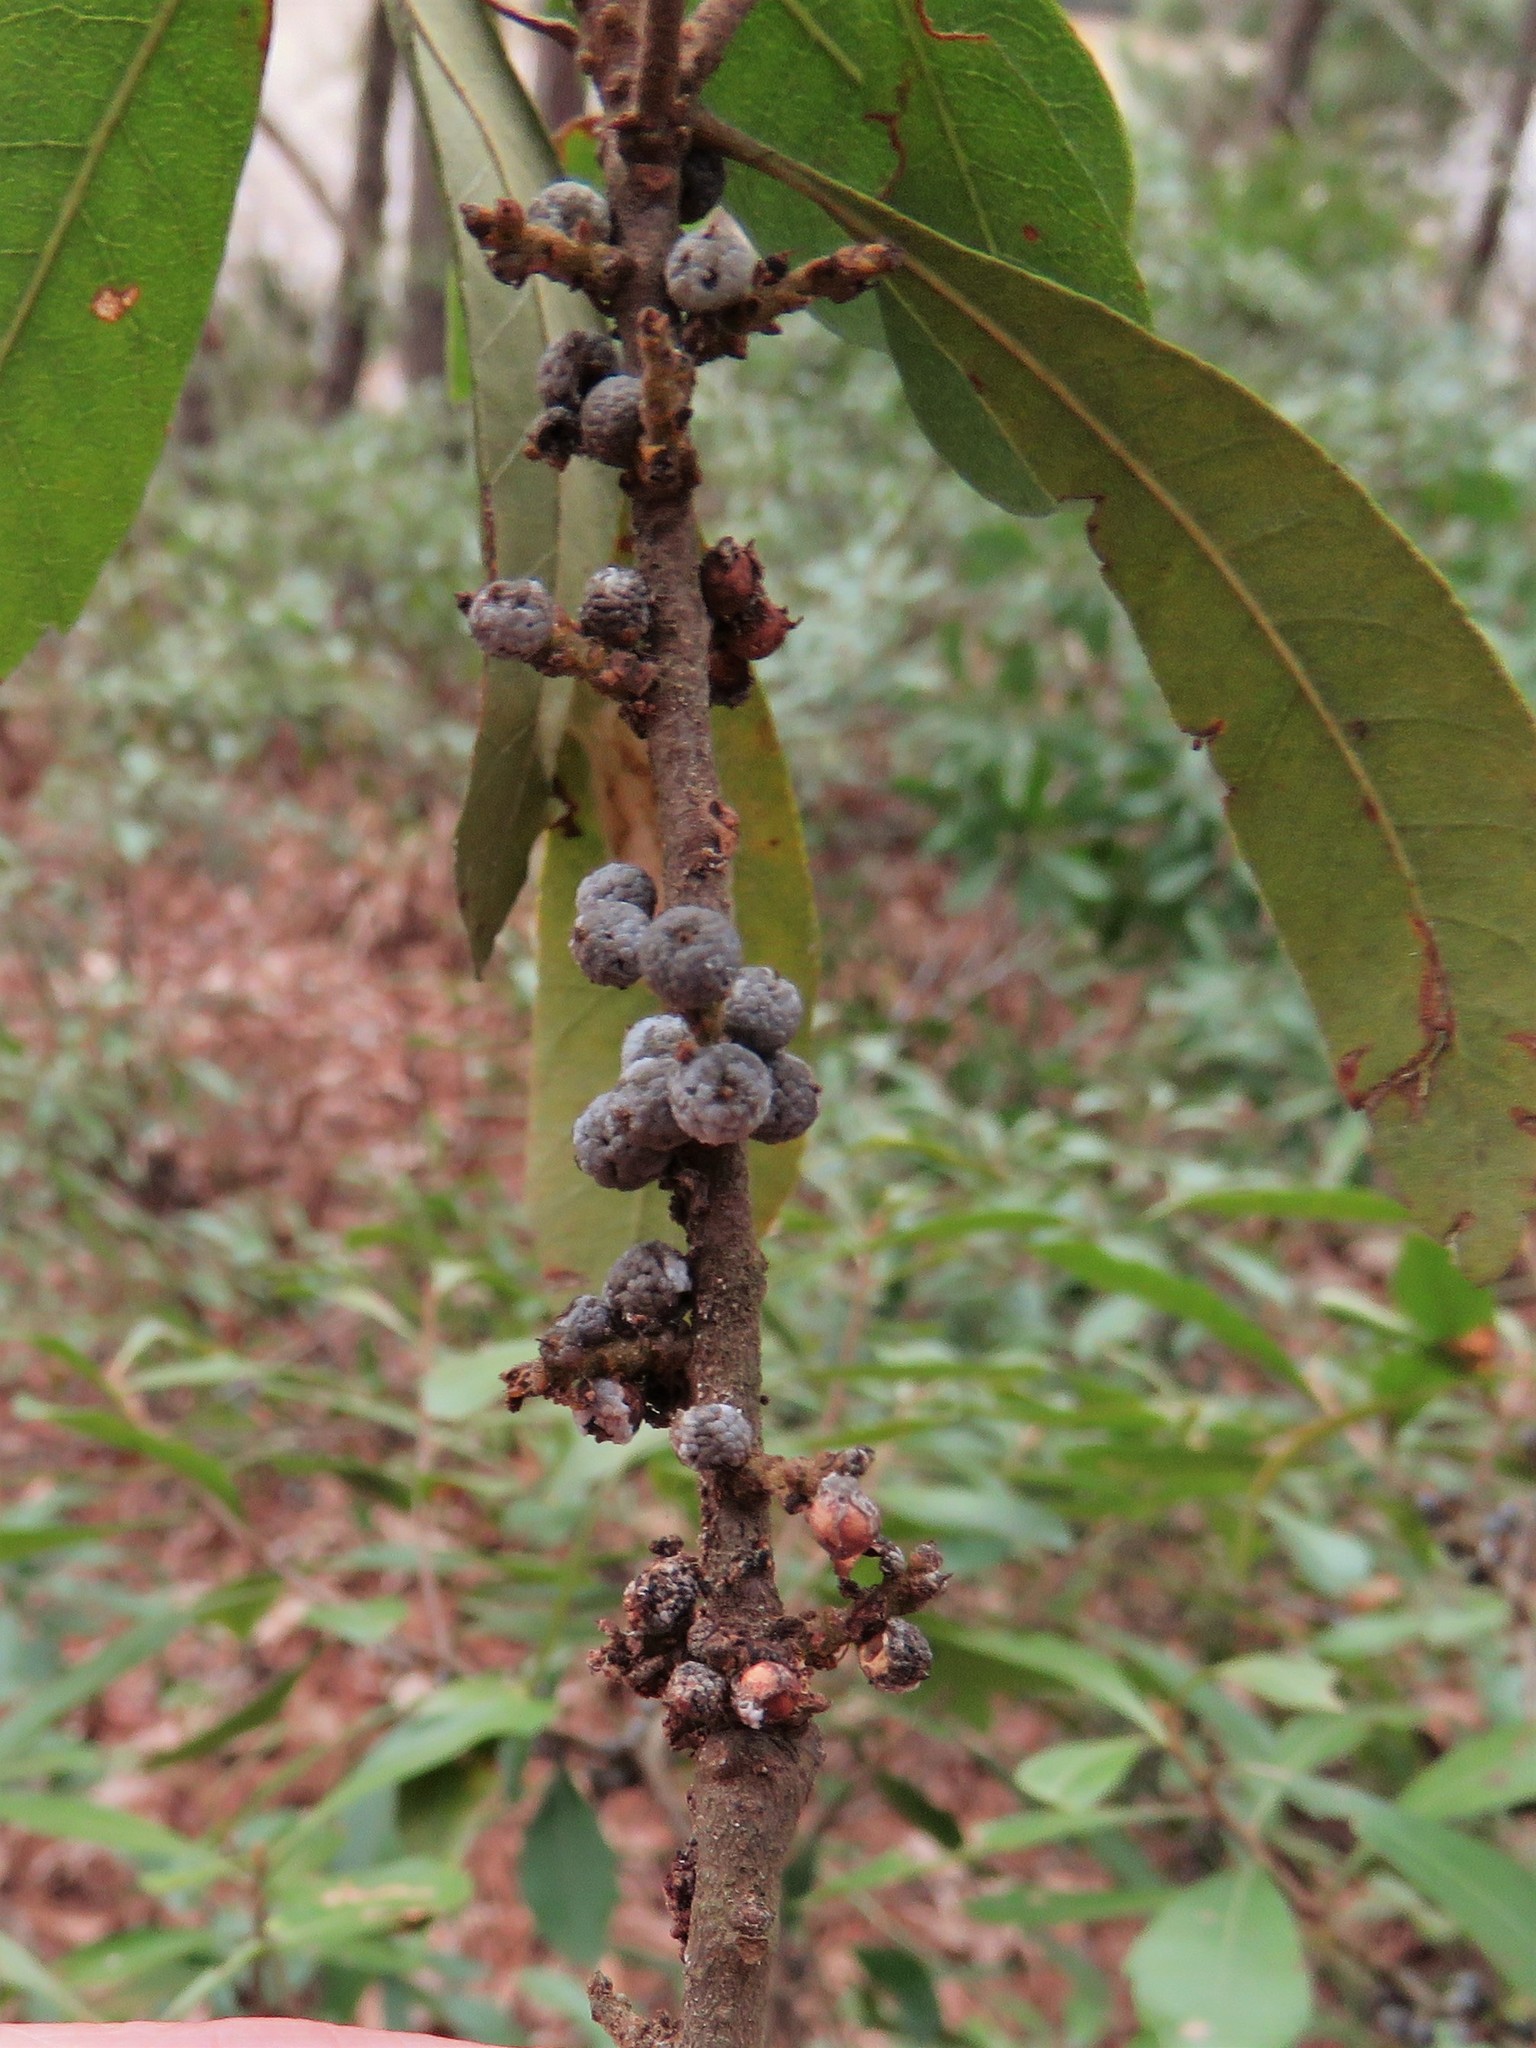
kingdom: Plantae
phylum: Tracheophyta
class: Magnoliopsida
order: Fagales
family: Myricaceae
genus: Morella
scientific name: Morella cerifera
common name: Wax myrtle
